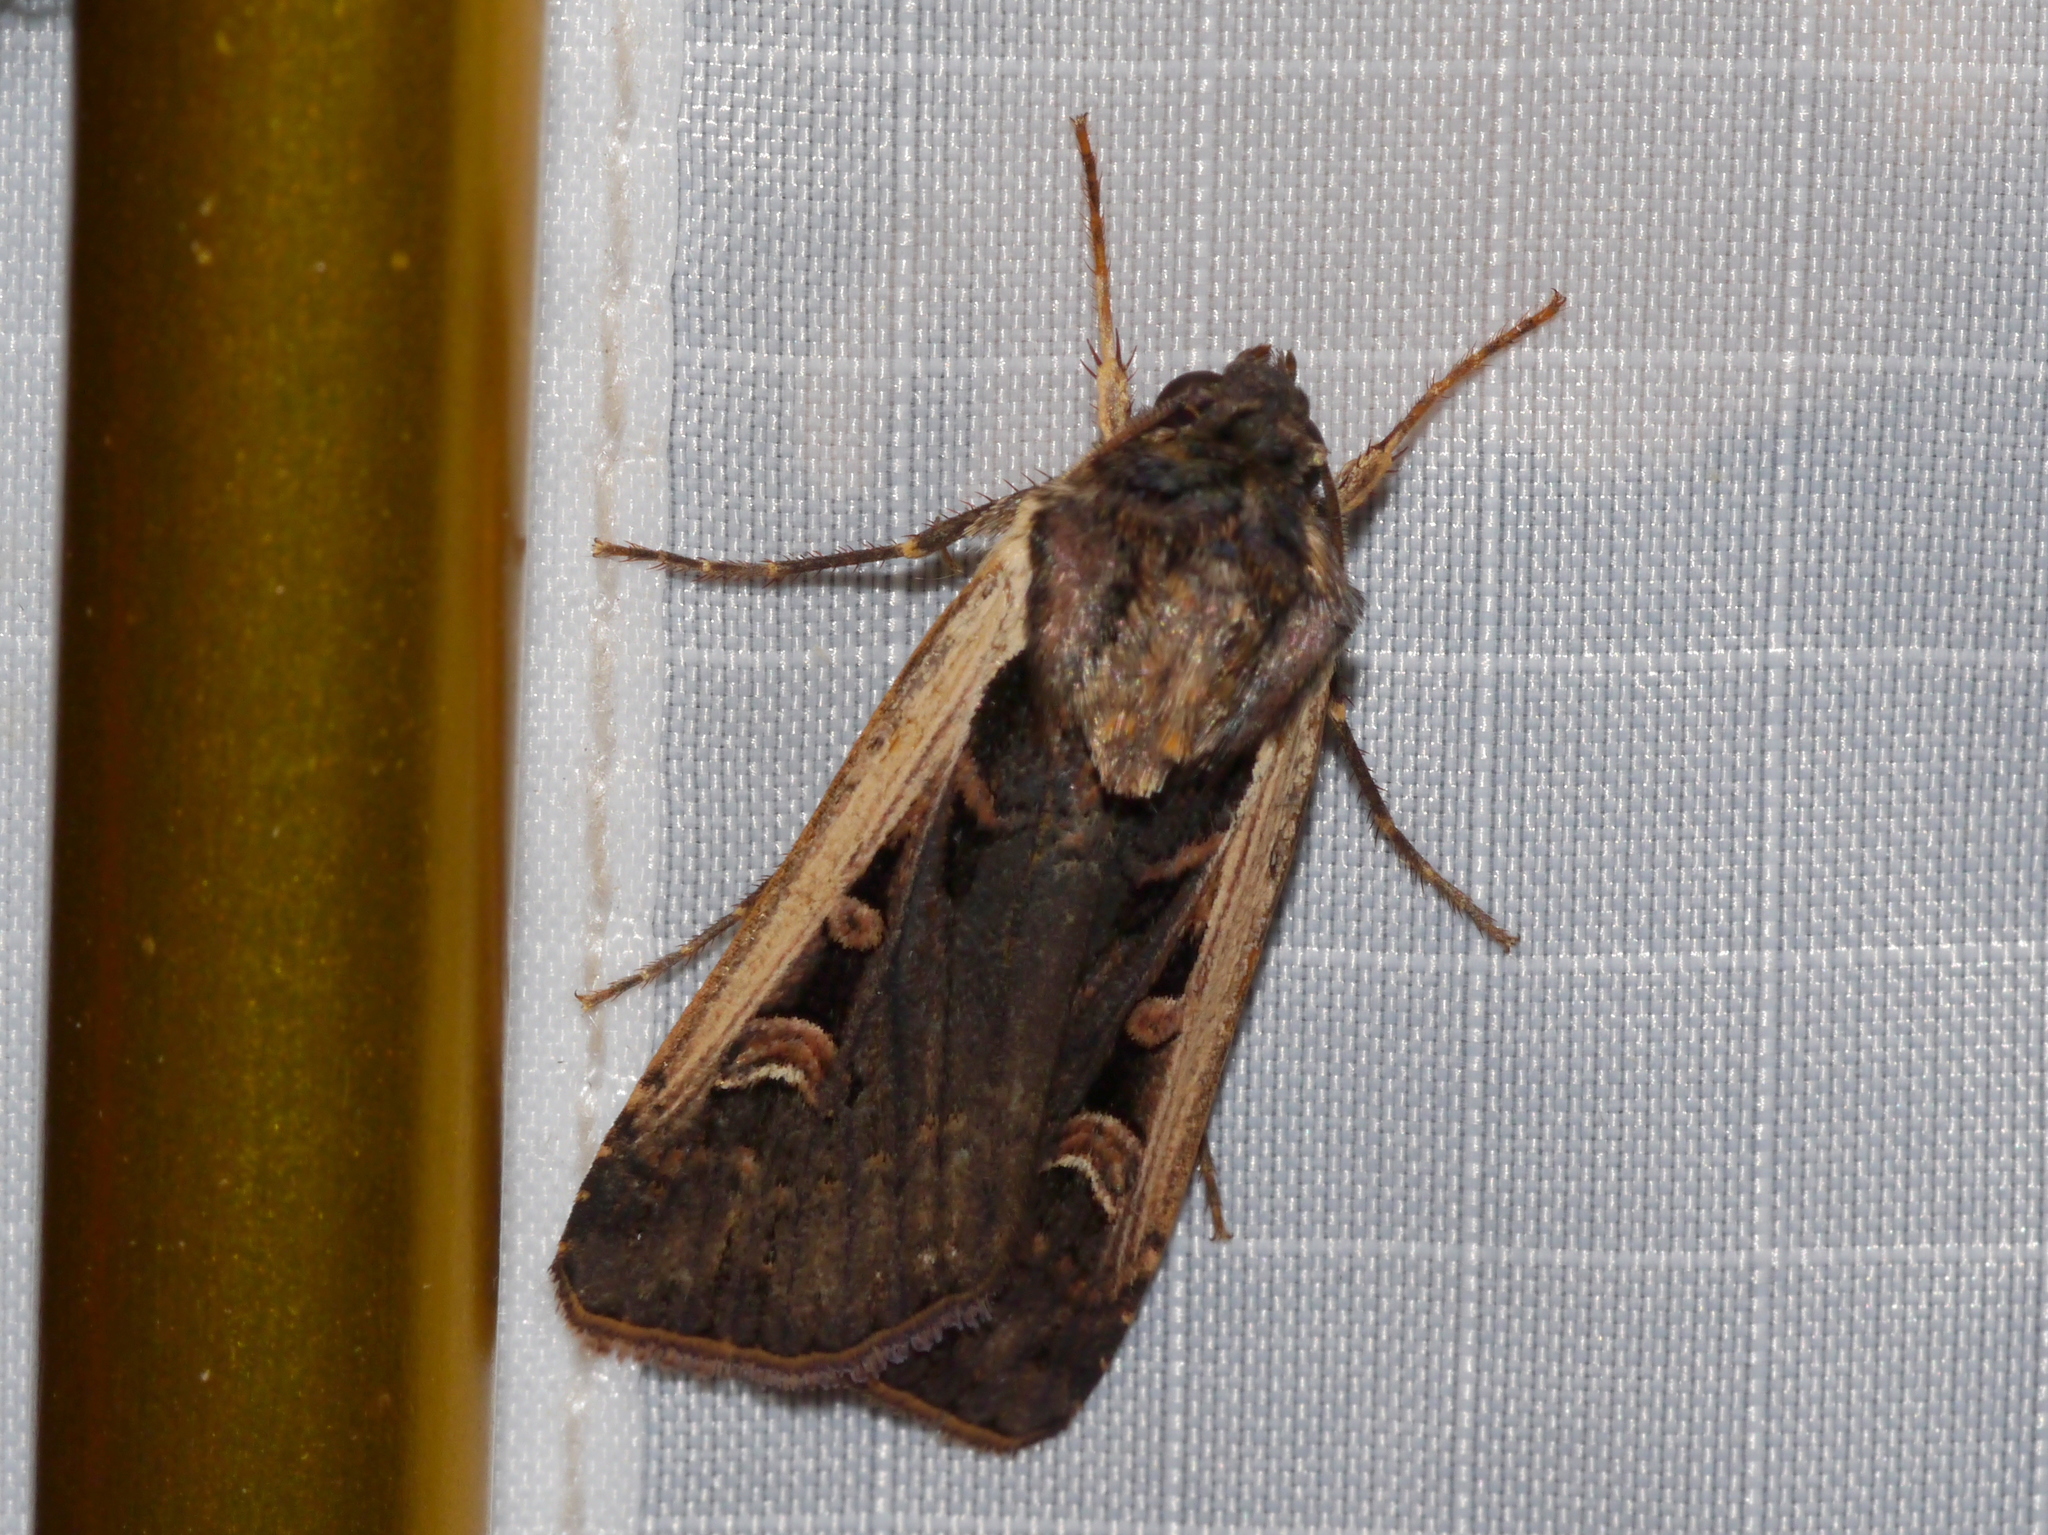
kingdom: Animalia
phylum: Arthropoda
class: Insecta
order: Lepidoptera
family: Noctuidae
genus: Striacosta
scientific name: Striacosta albicosta
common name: Western bean cutworm moth
